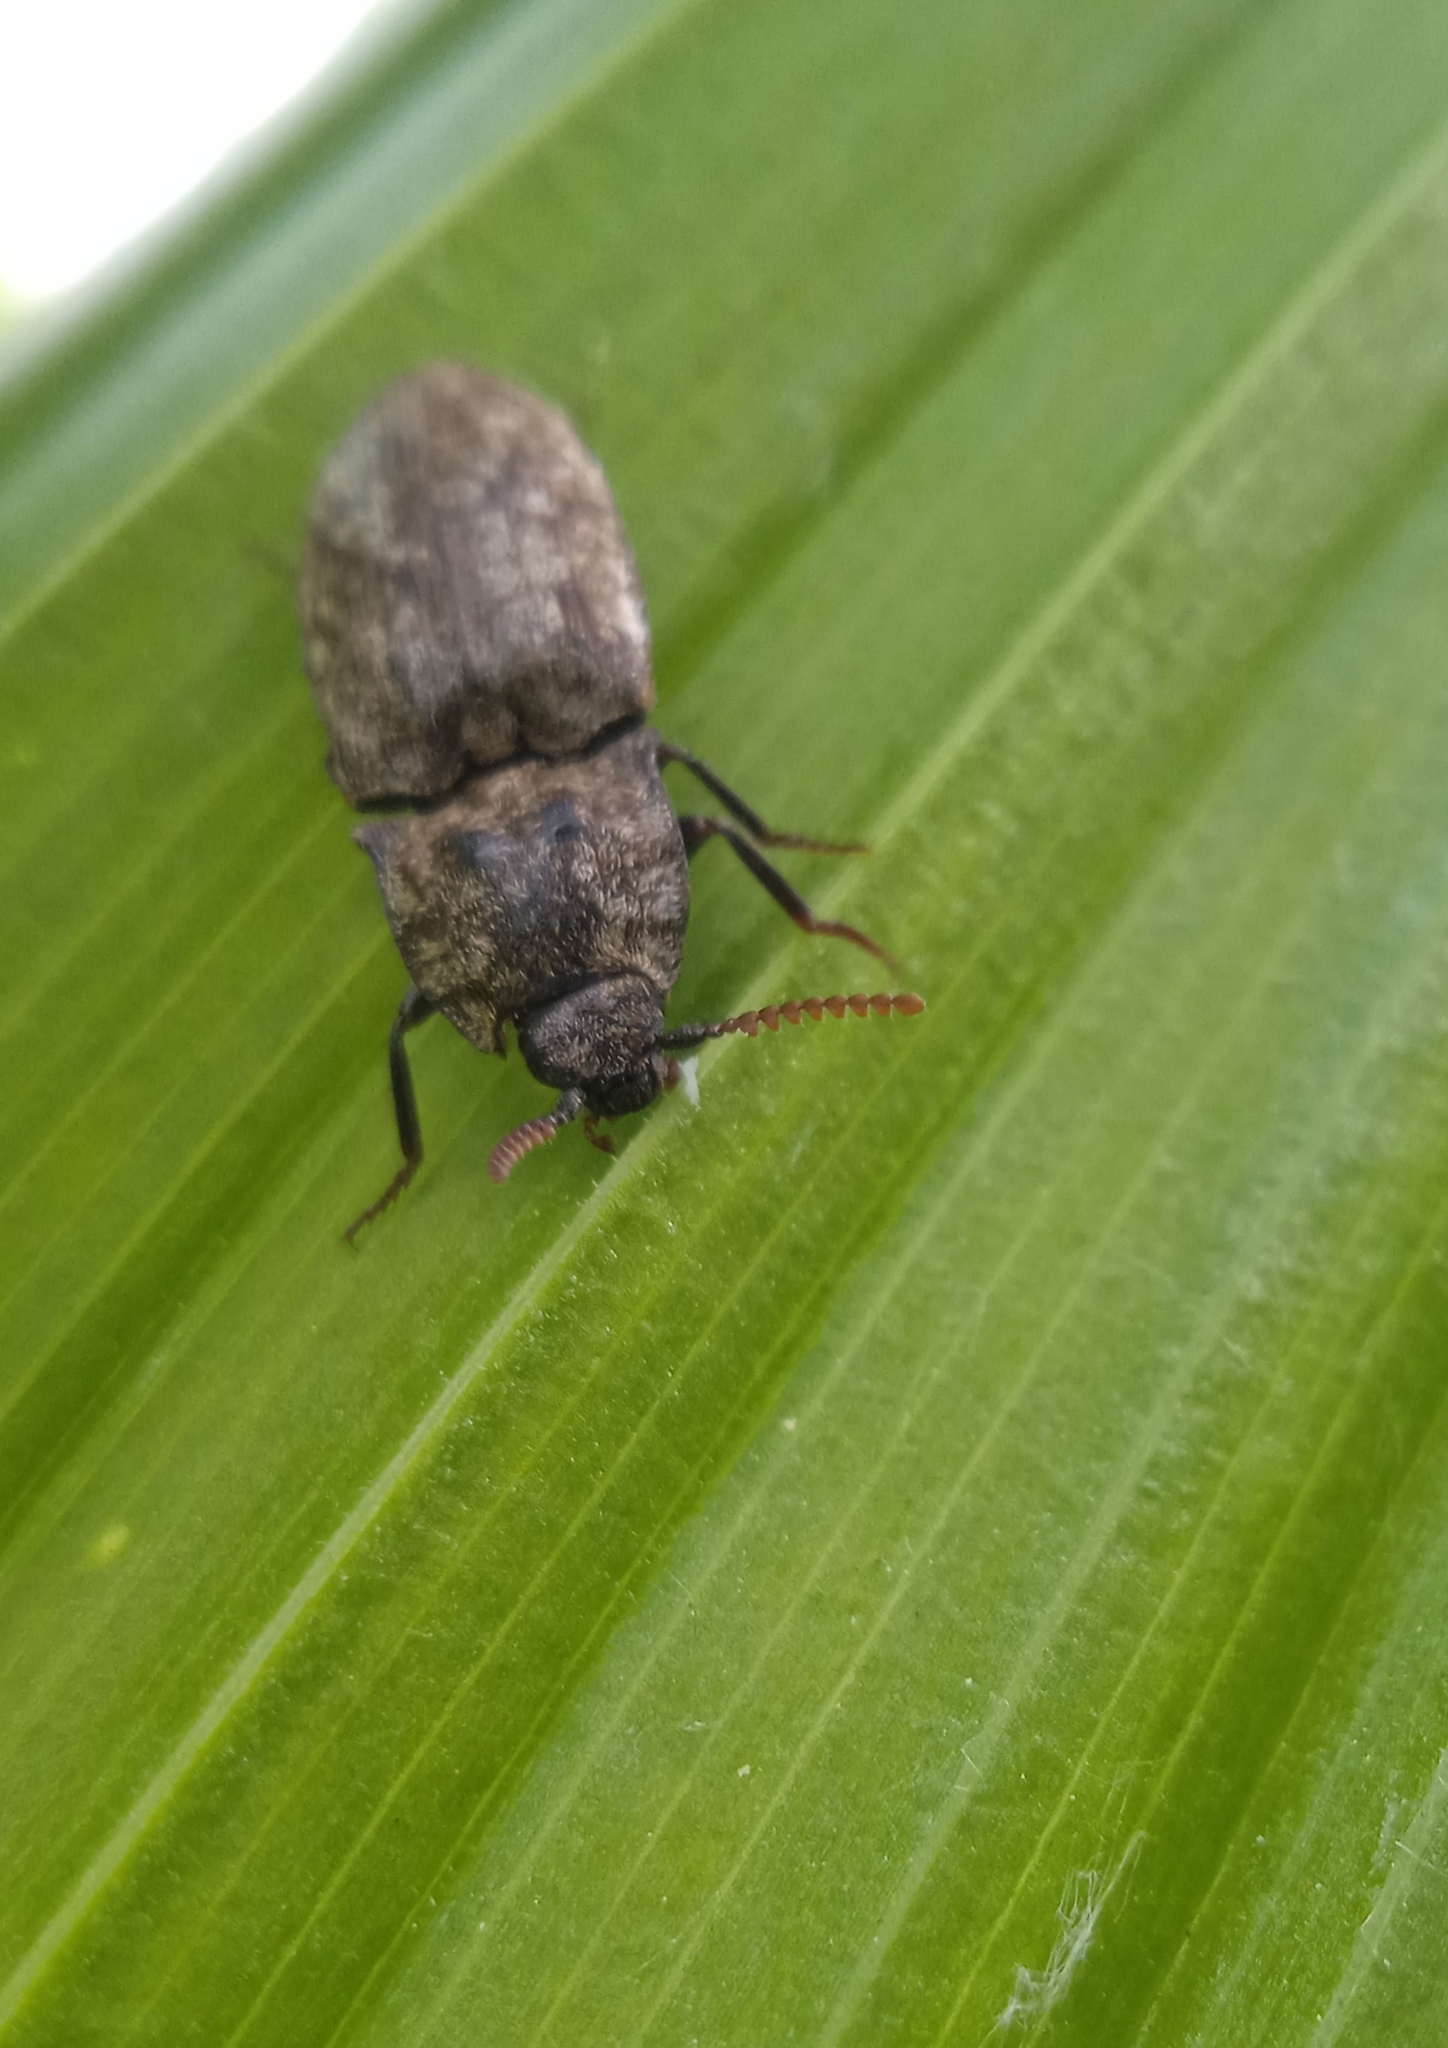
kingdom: Animalia
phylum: Arthropoda
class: Insecta
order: Coleoptera
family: Elateridae
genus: Agrypnus
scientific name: Agrypnus murinus
